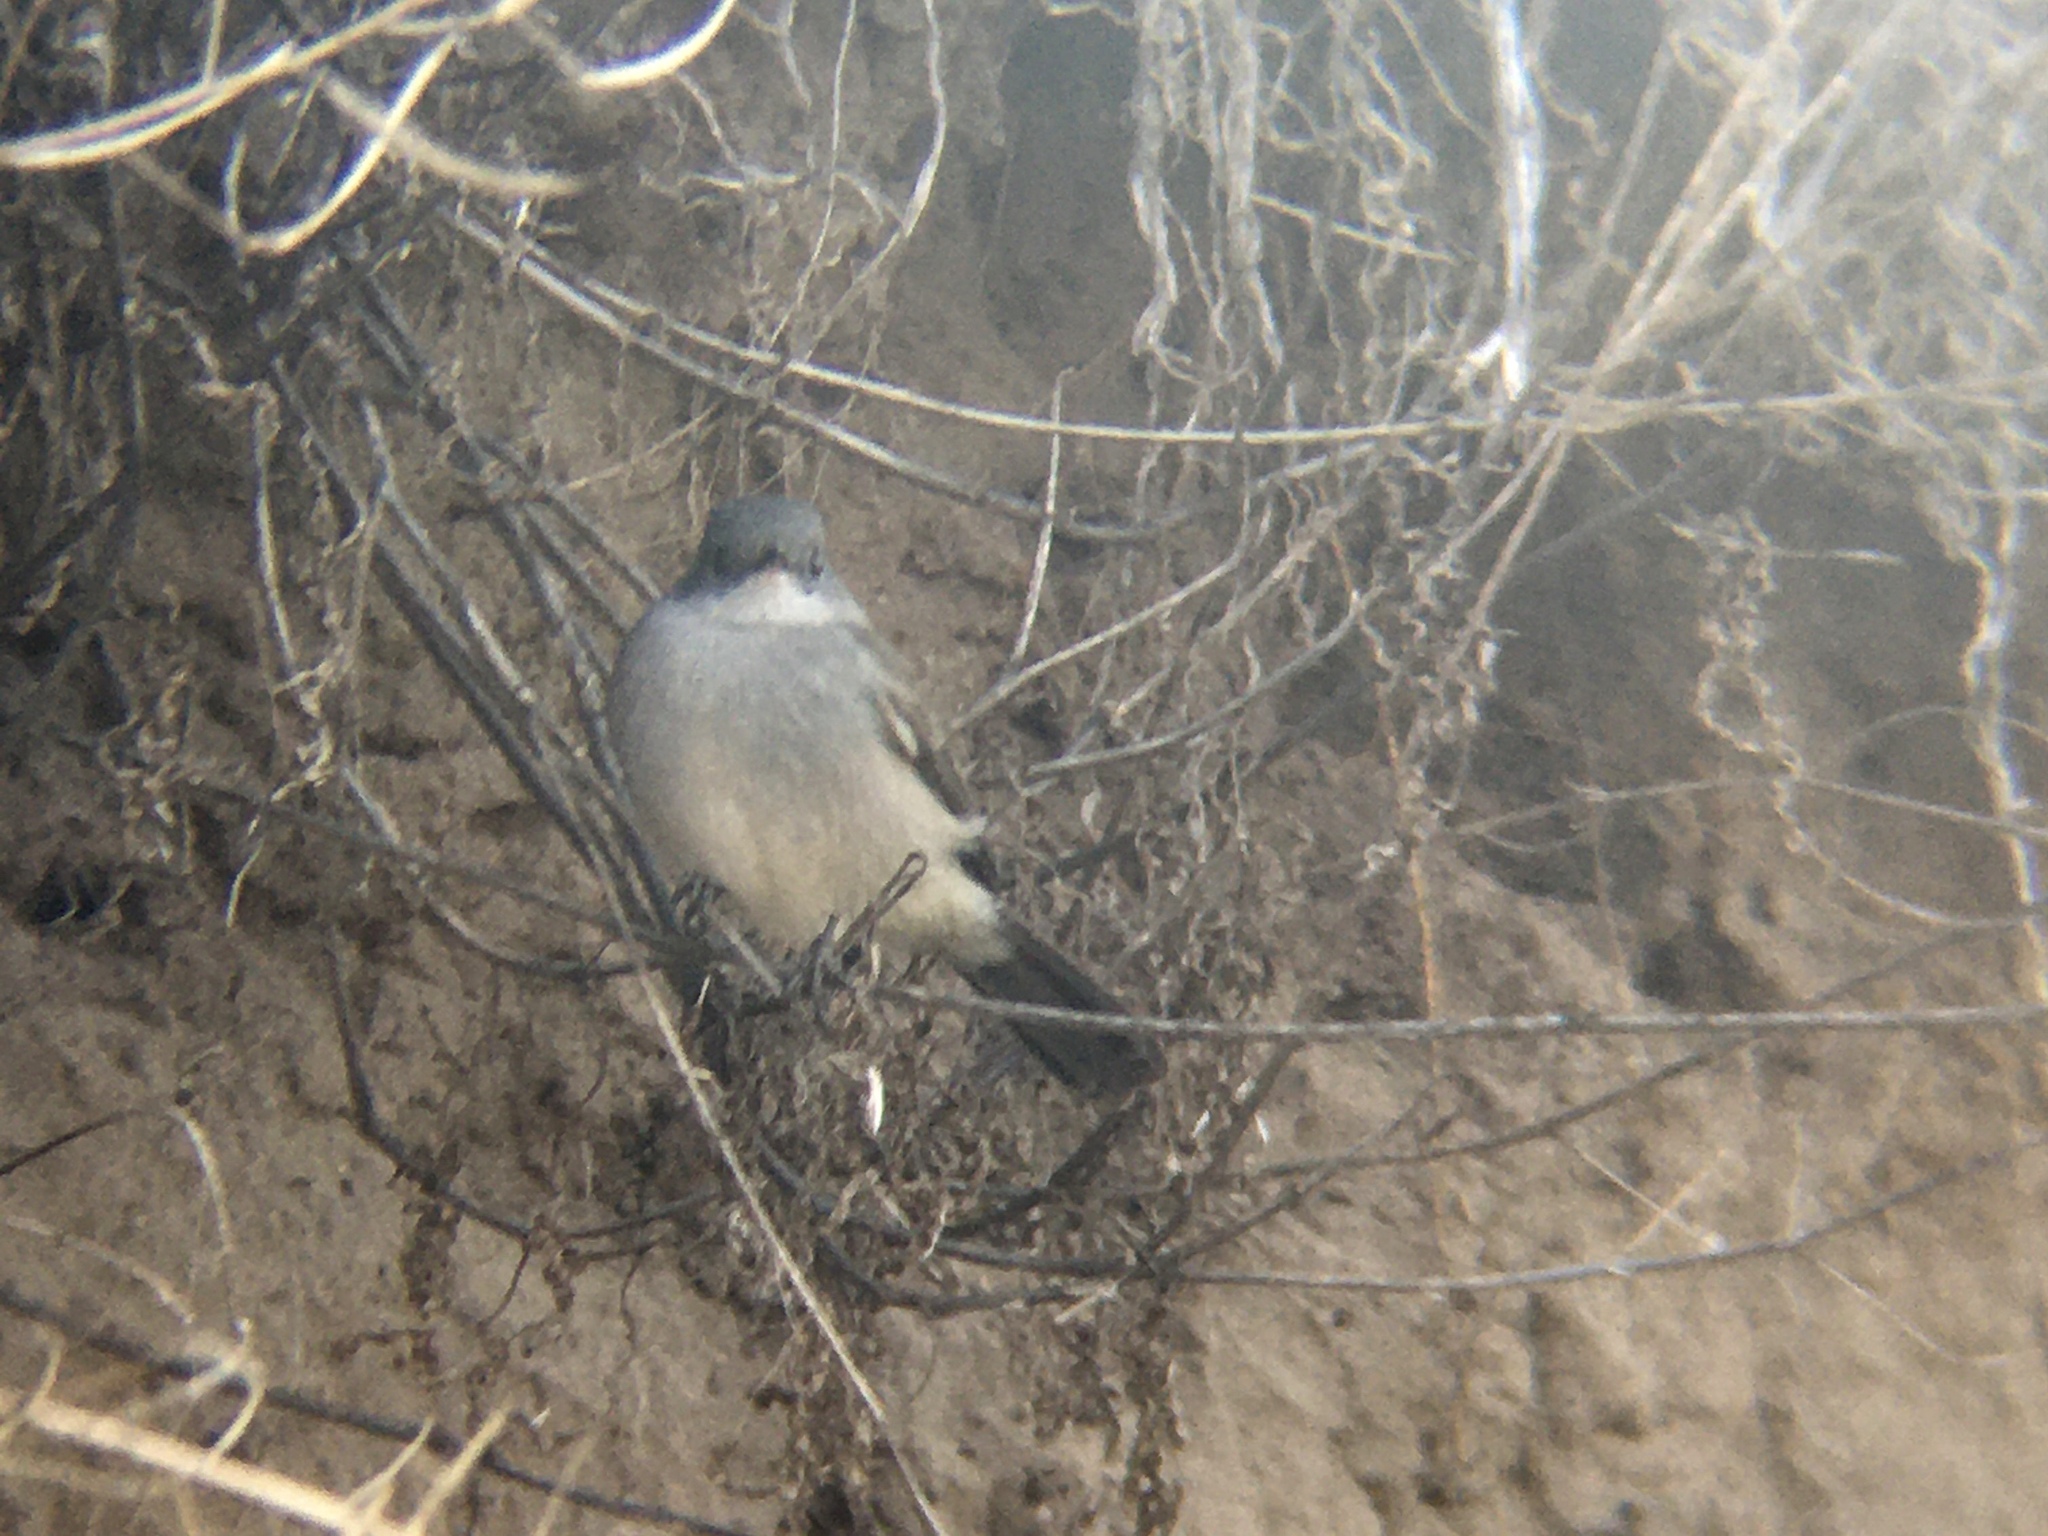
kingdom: Animalia
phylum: Chordata
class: Aves
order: Passeriformes
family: Tyrannidae
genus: Serpophaga
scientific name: Serpophaga nigricans
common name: Sooty tyrannulet
